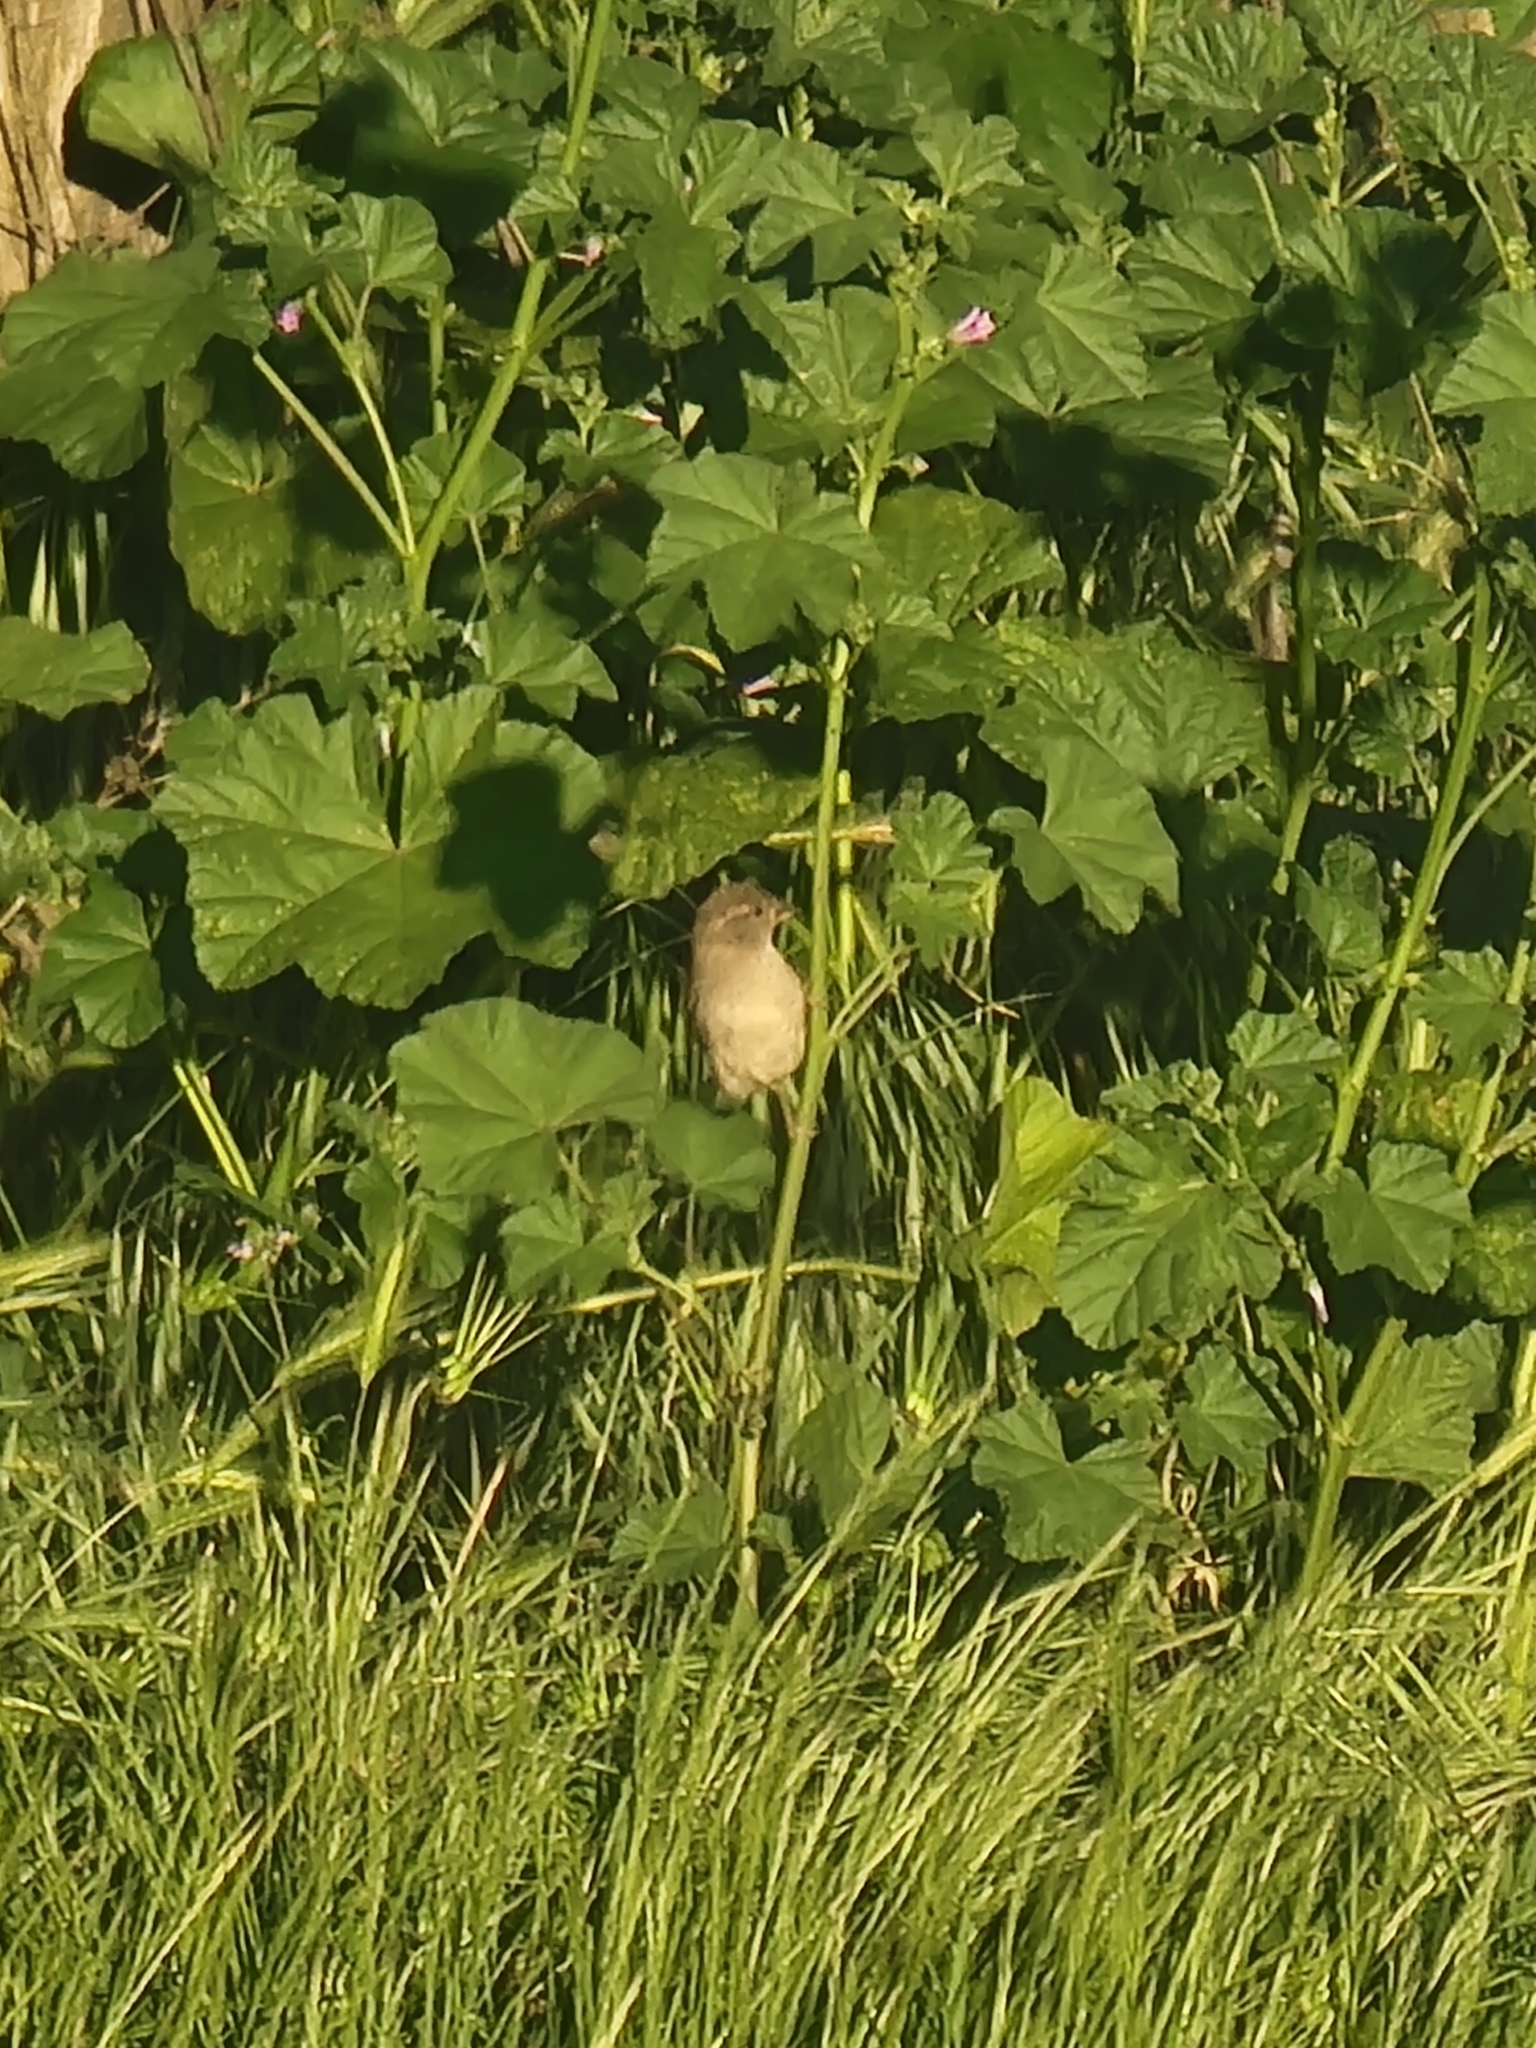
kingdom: Animalia
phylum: Chordata
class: Aves
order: Passeriformes
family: Passeridae
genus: Passer
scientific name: Passer domesticus
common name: House sparrow
